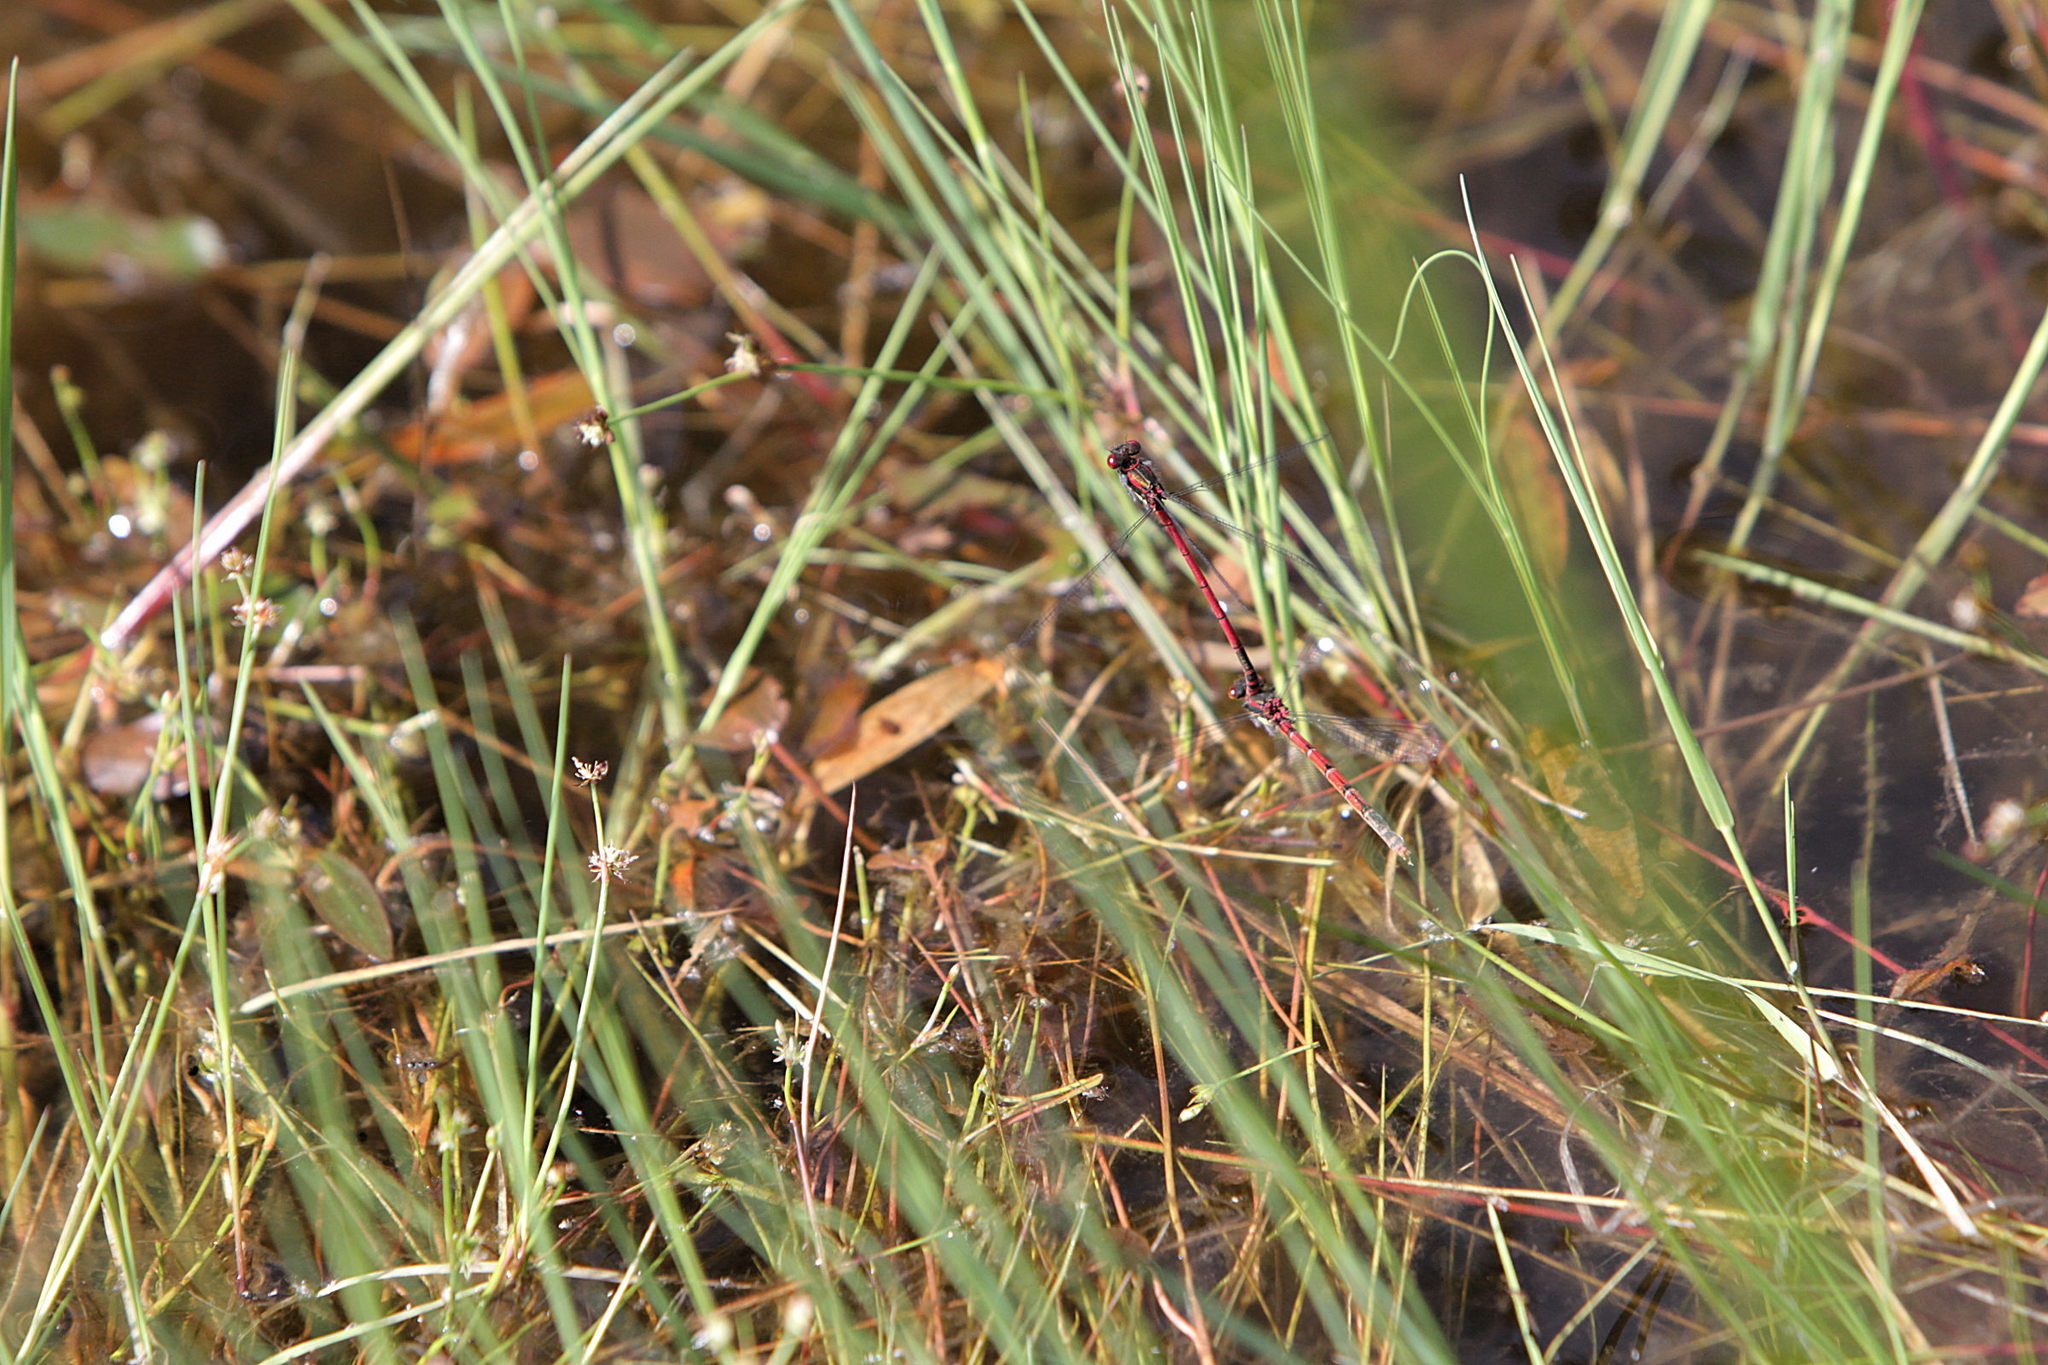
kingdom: Animalia
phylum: Arthropoda
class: Insecta
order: Odonata
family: Coenagrionidae
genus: Pyrrhosoma
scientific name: Pyrrhosoma nymphula
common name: Large red damsel
